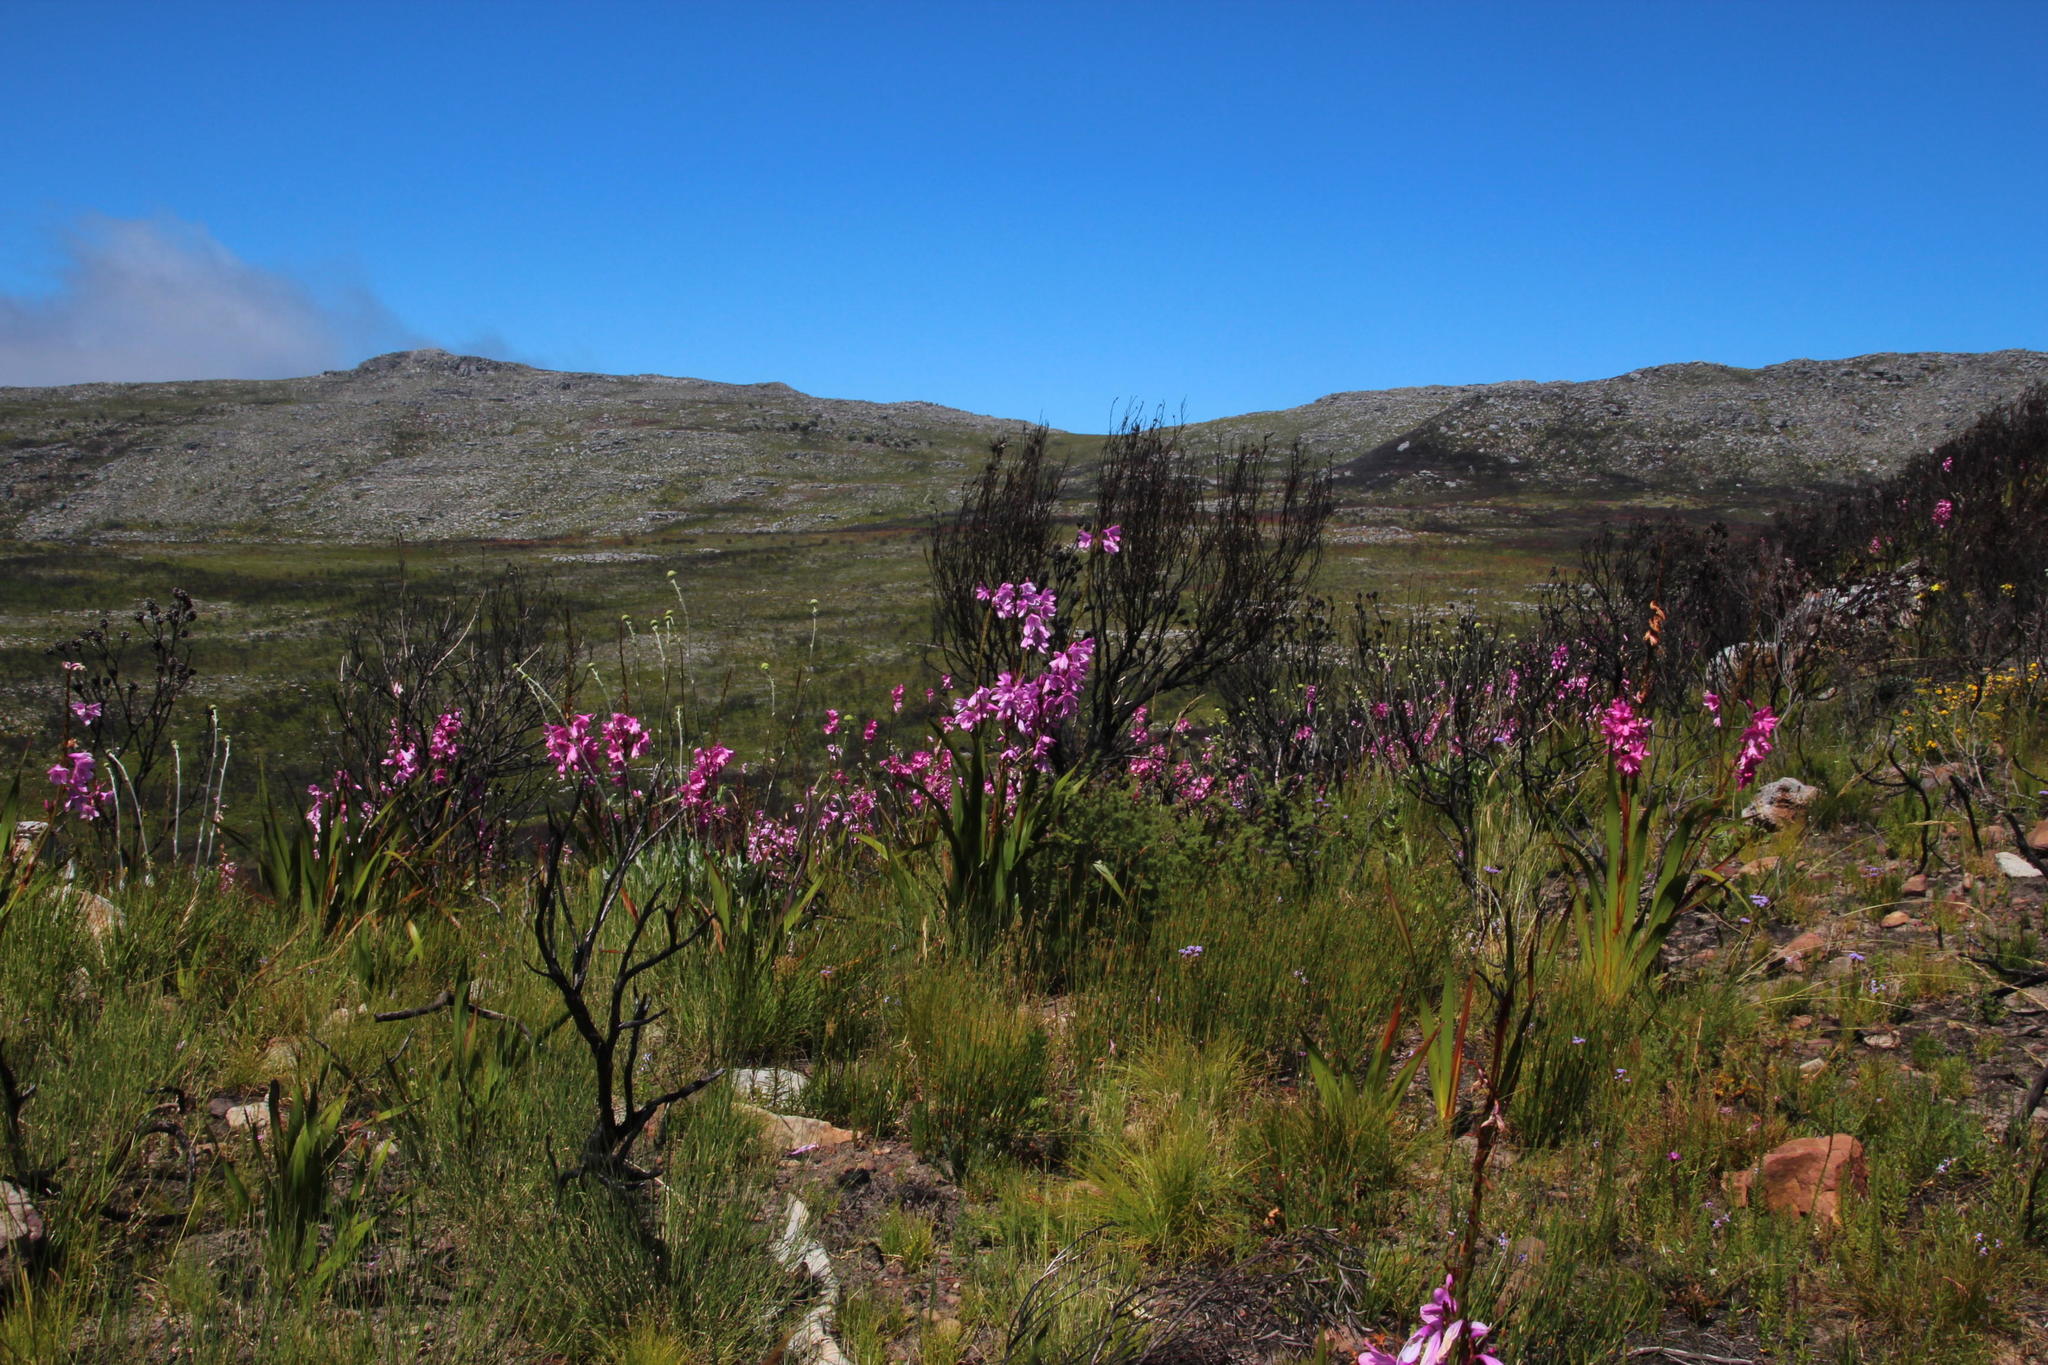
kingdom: Plantae
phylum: Tracheophyta
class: Liliopsida
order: Asparagales
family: Iridaceae
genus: Watsonia
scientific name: Watsonia borbonica
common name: Bugle-lily
